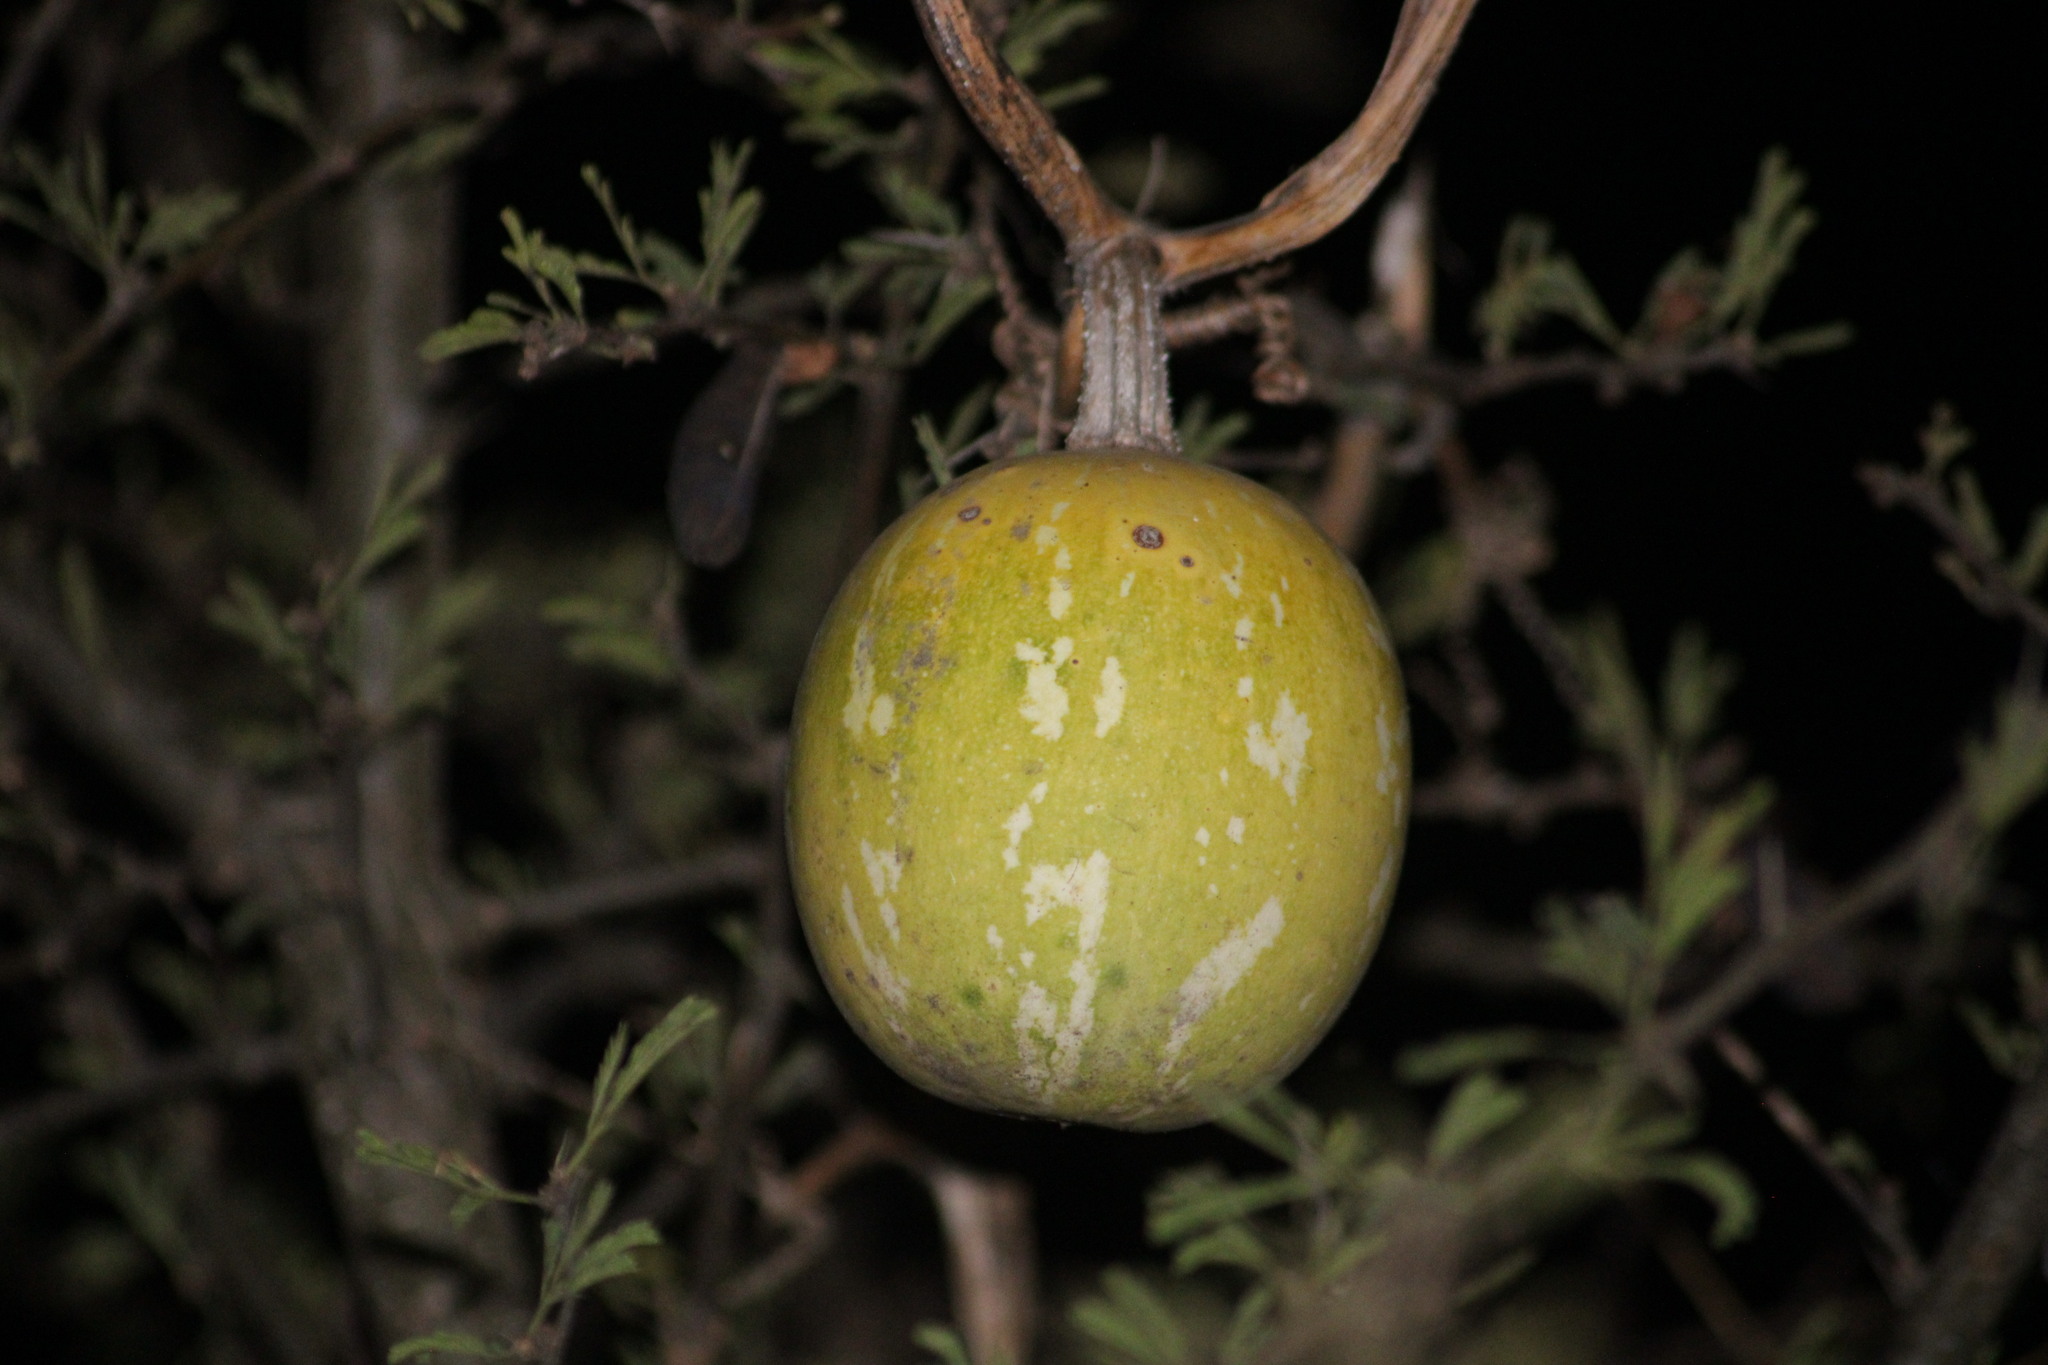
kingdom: Plantae
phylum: Tracheophyta
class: Magnoliopsida
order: Cucurbitales
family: Cucurbitaceae
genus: Cucurbita
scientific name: Cucurbita argyrosperma
